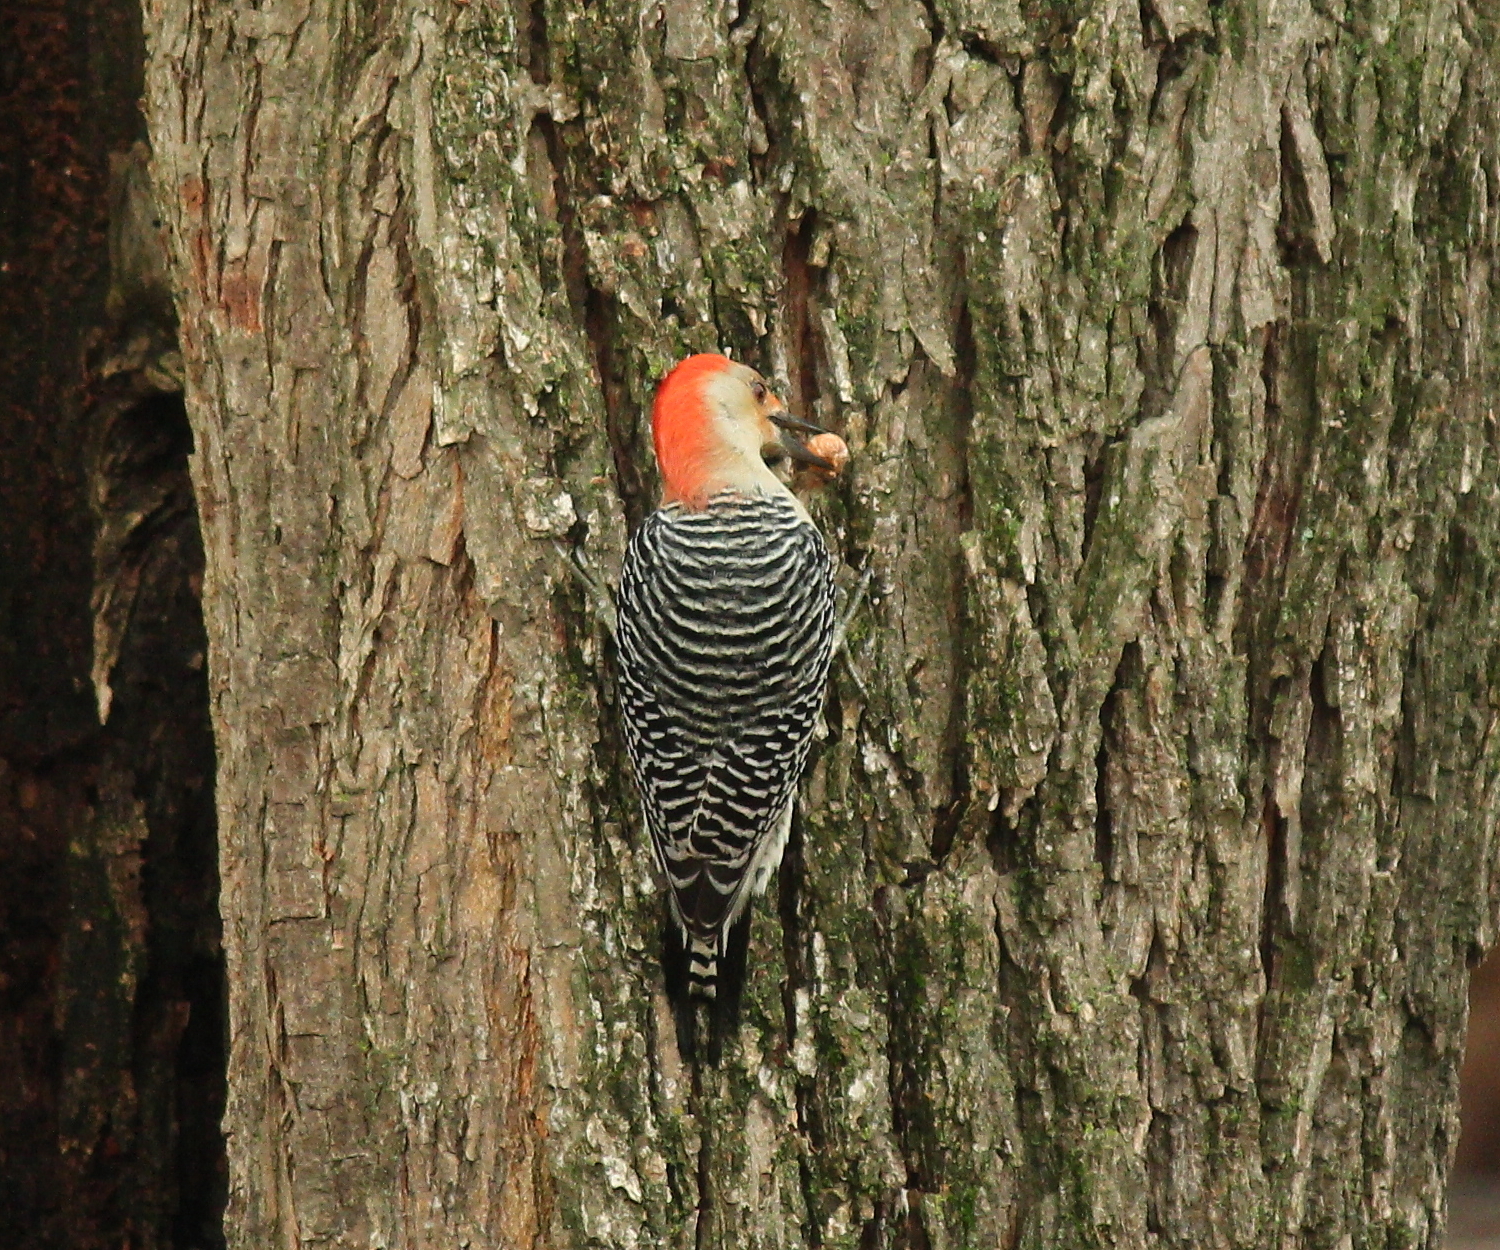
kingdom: Animalia
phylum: Chordata
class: Aves
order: Piciformes
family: Picidae
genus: Melanerpes
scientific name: Melanerpes carolinus
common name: Red-bellied woodpecker
